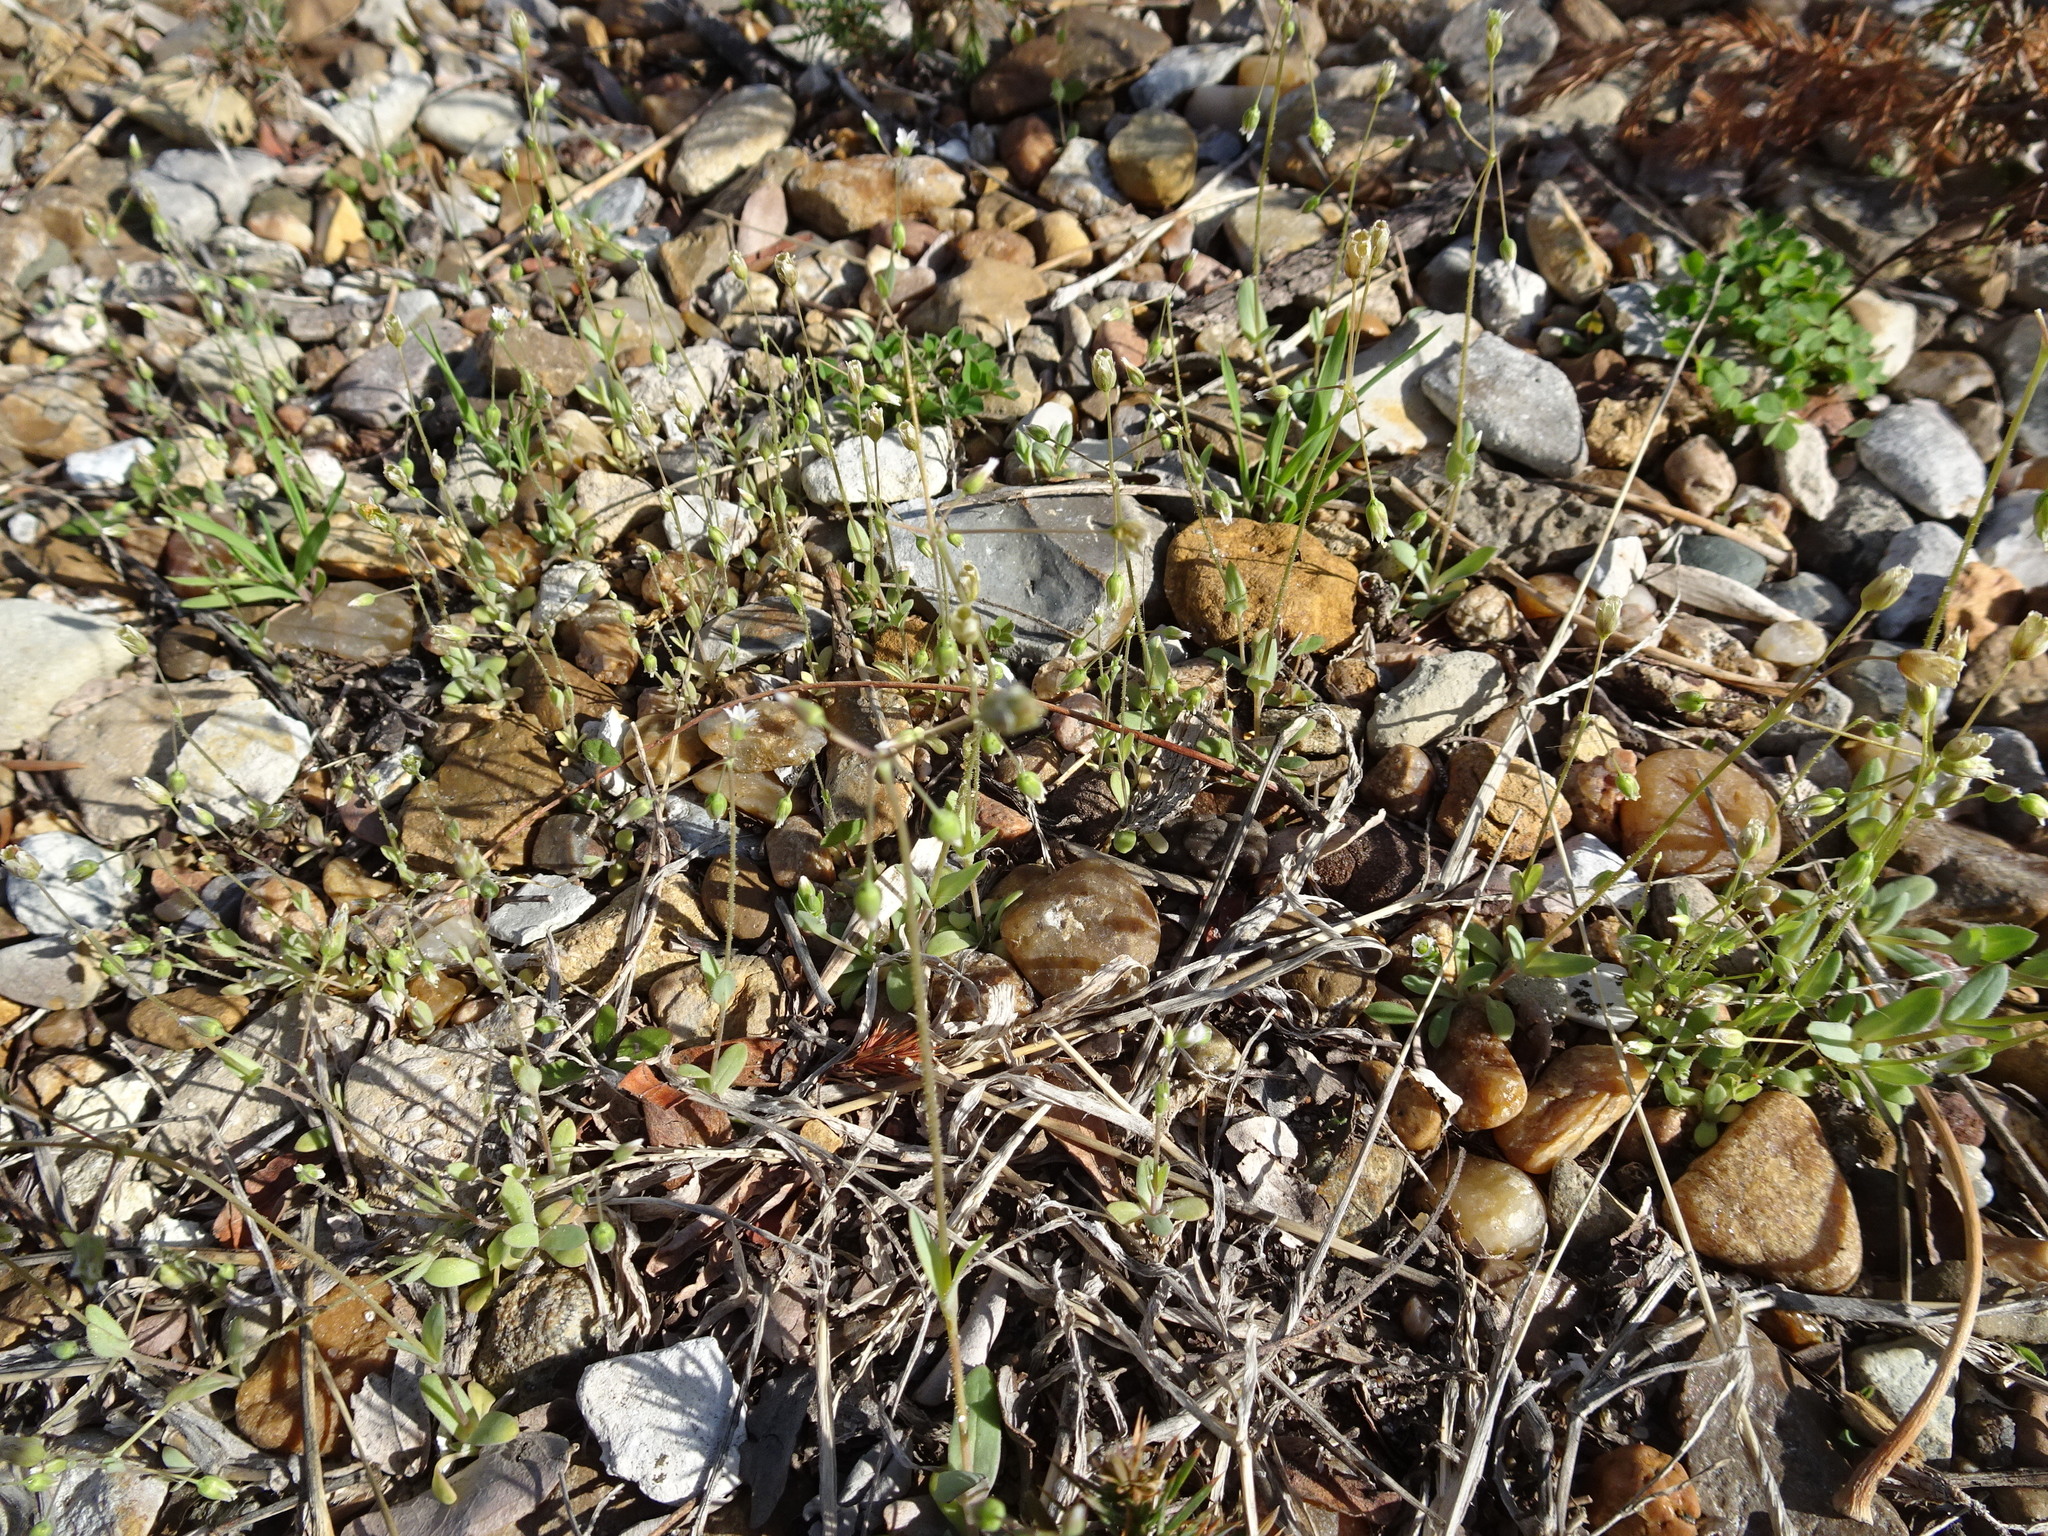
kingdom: Plantae
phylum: Tracheophyta
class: Magnoliopsida
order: Caryophyllales
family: Caryophyllaceae
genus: Holosteum
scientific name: Holosteum umbellatum
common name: Jagged chickweed
